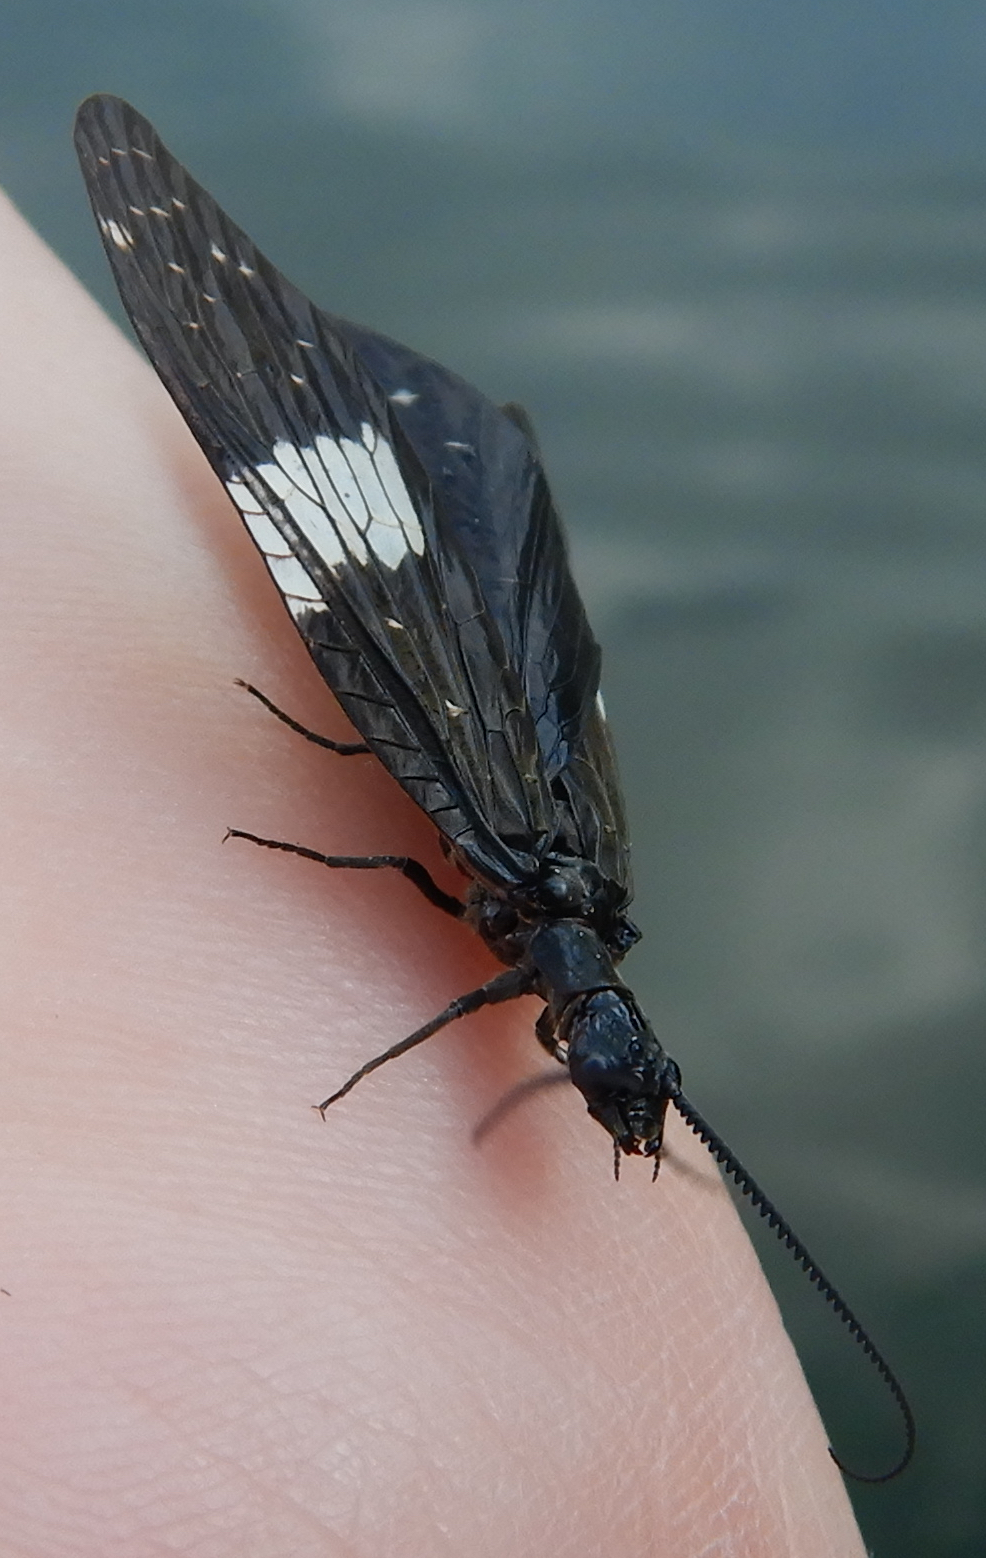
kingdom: Animalia
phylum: Arthropoda
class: Insecta
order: Megaloptera
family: Corydalidae
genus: Nigronia
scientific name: Nigronia serricornis
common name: Serrate dark fishfly
